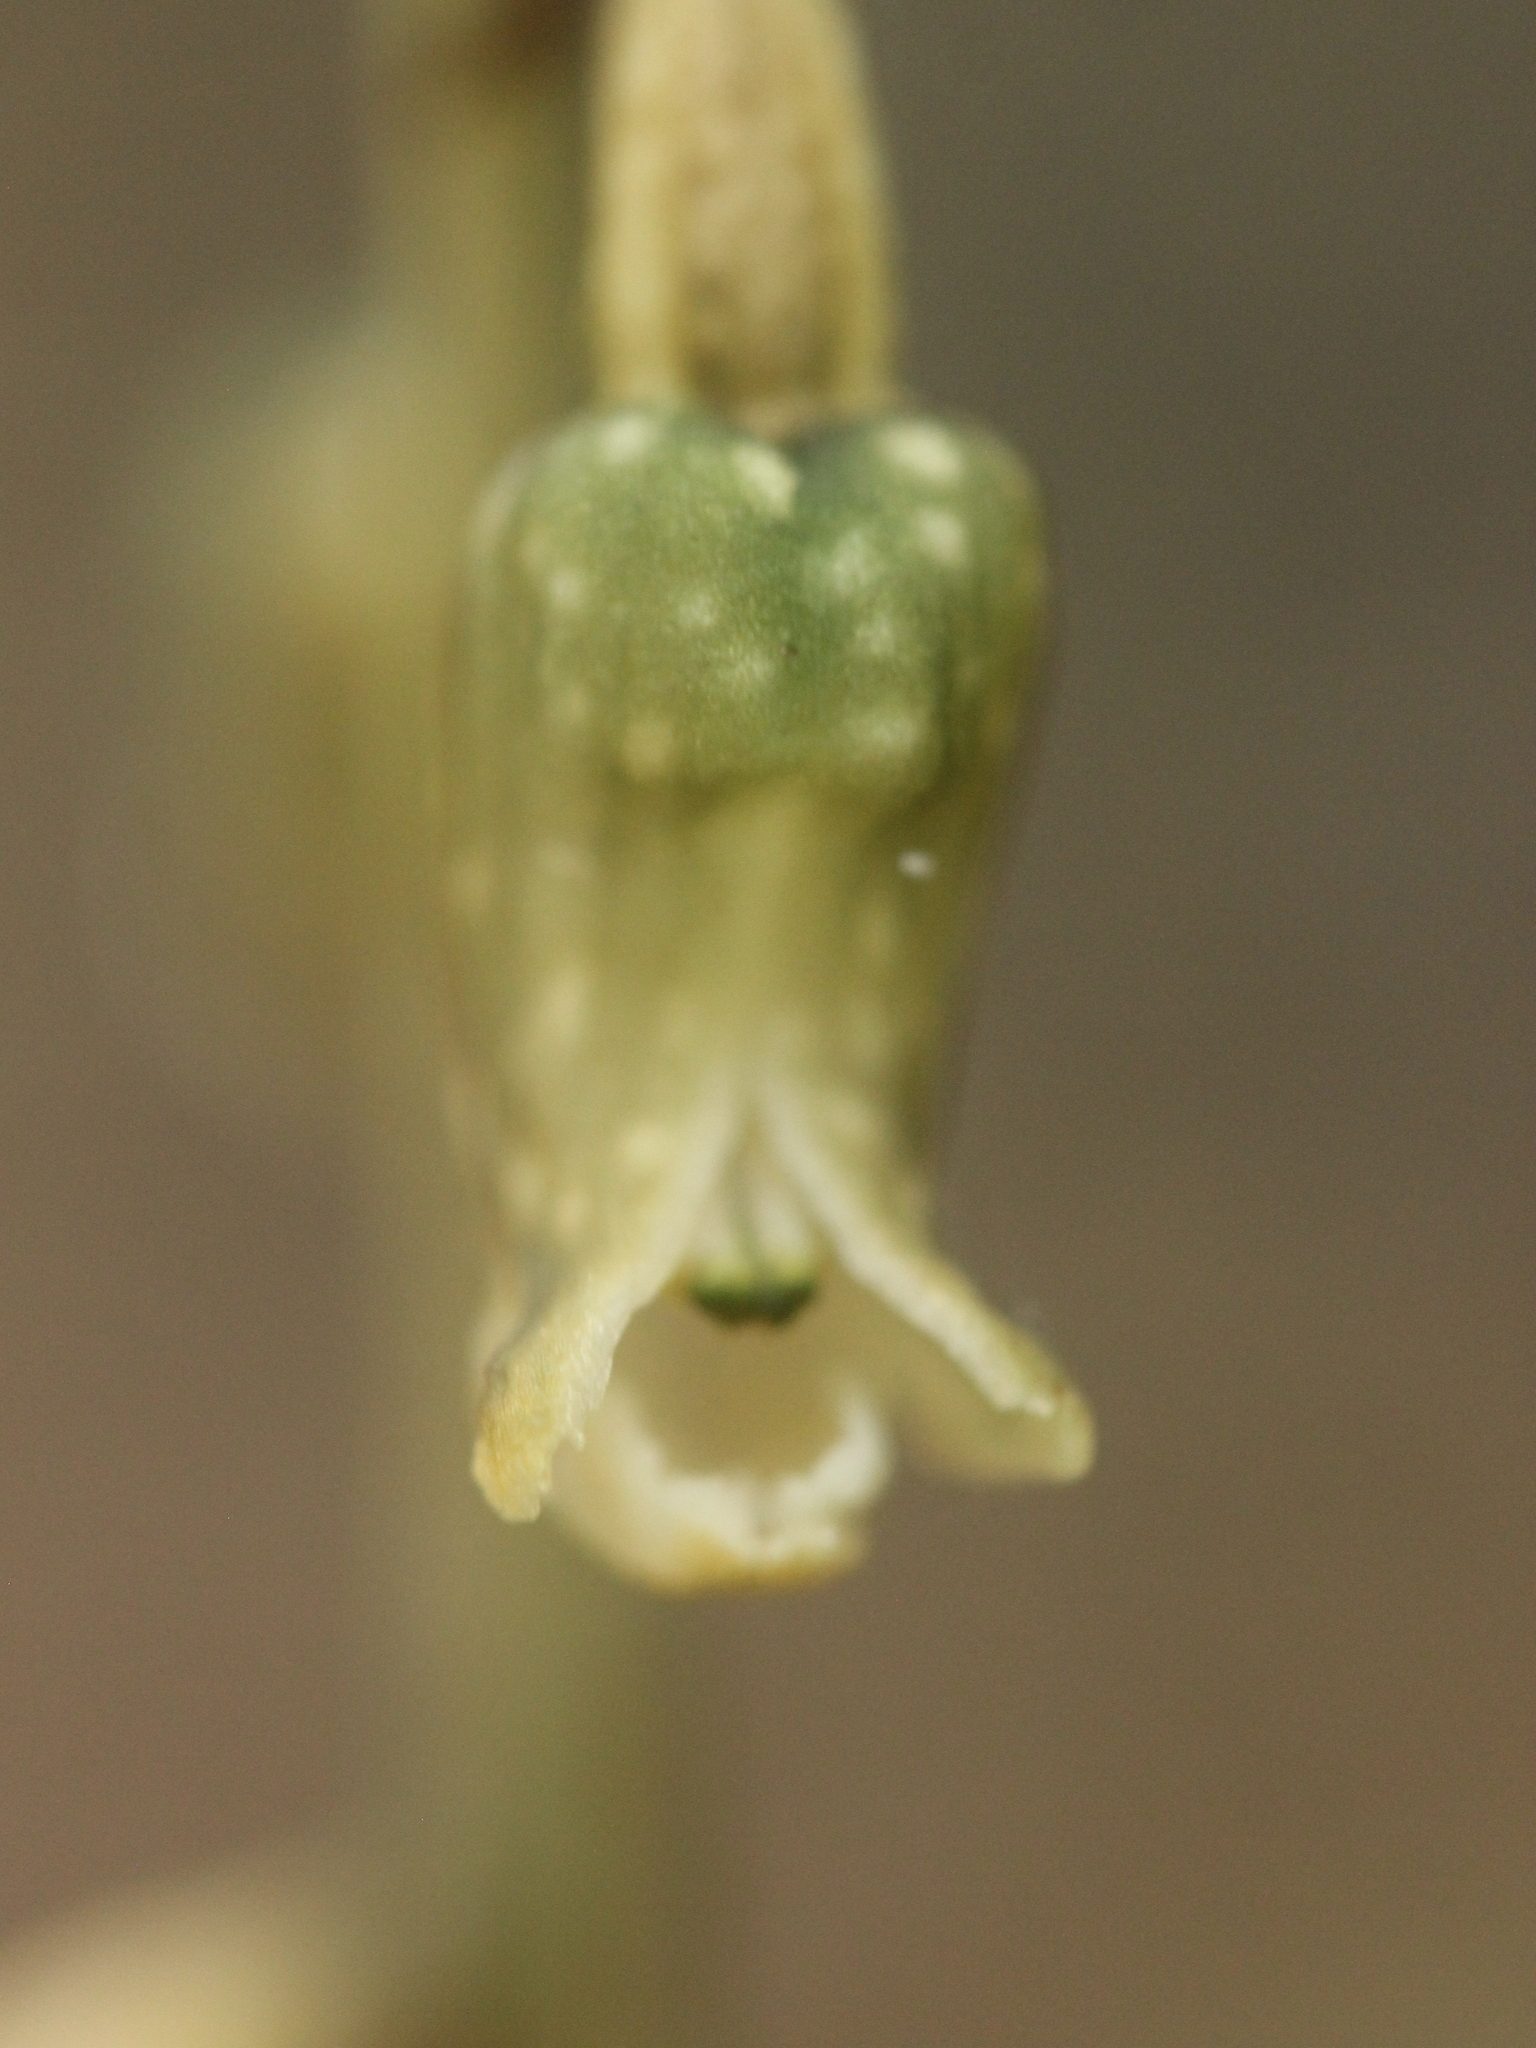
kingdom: Plantae
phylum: Tracheophyta
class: Liliopsida
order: Asparagales
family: Orchidaceae
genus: Gastrodia
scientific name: Gastrodia cunninghamii
